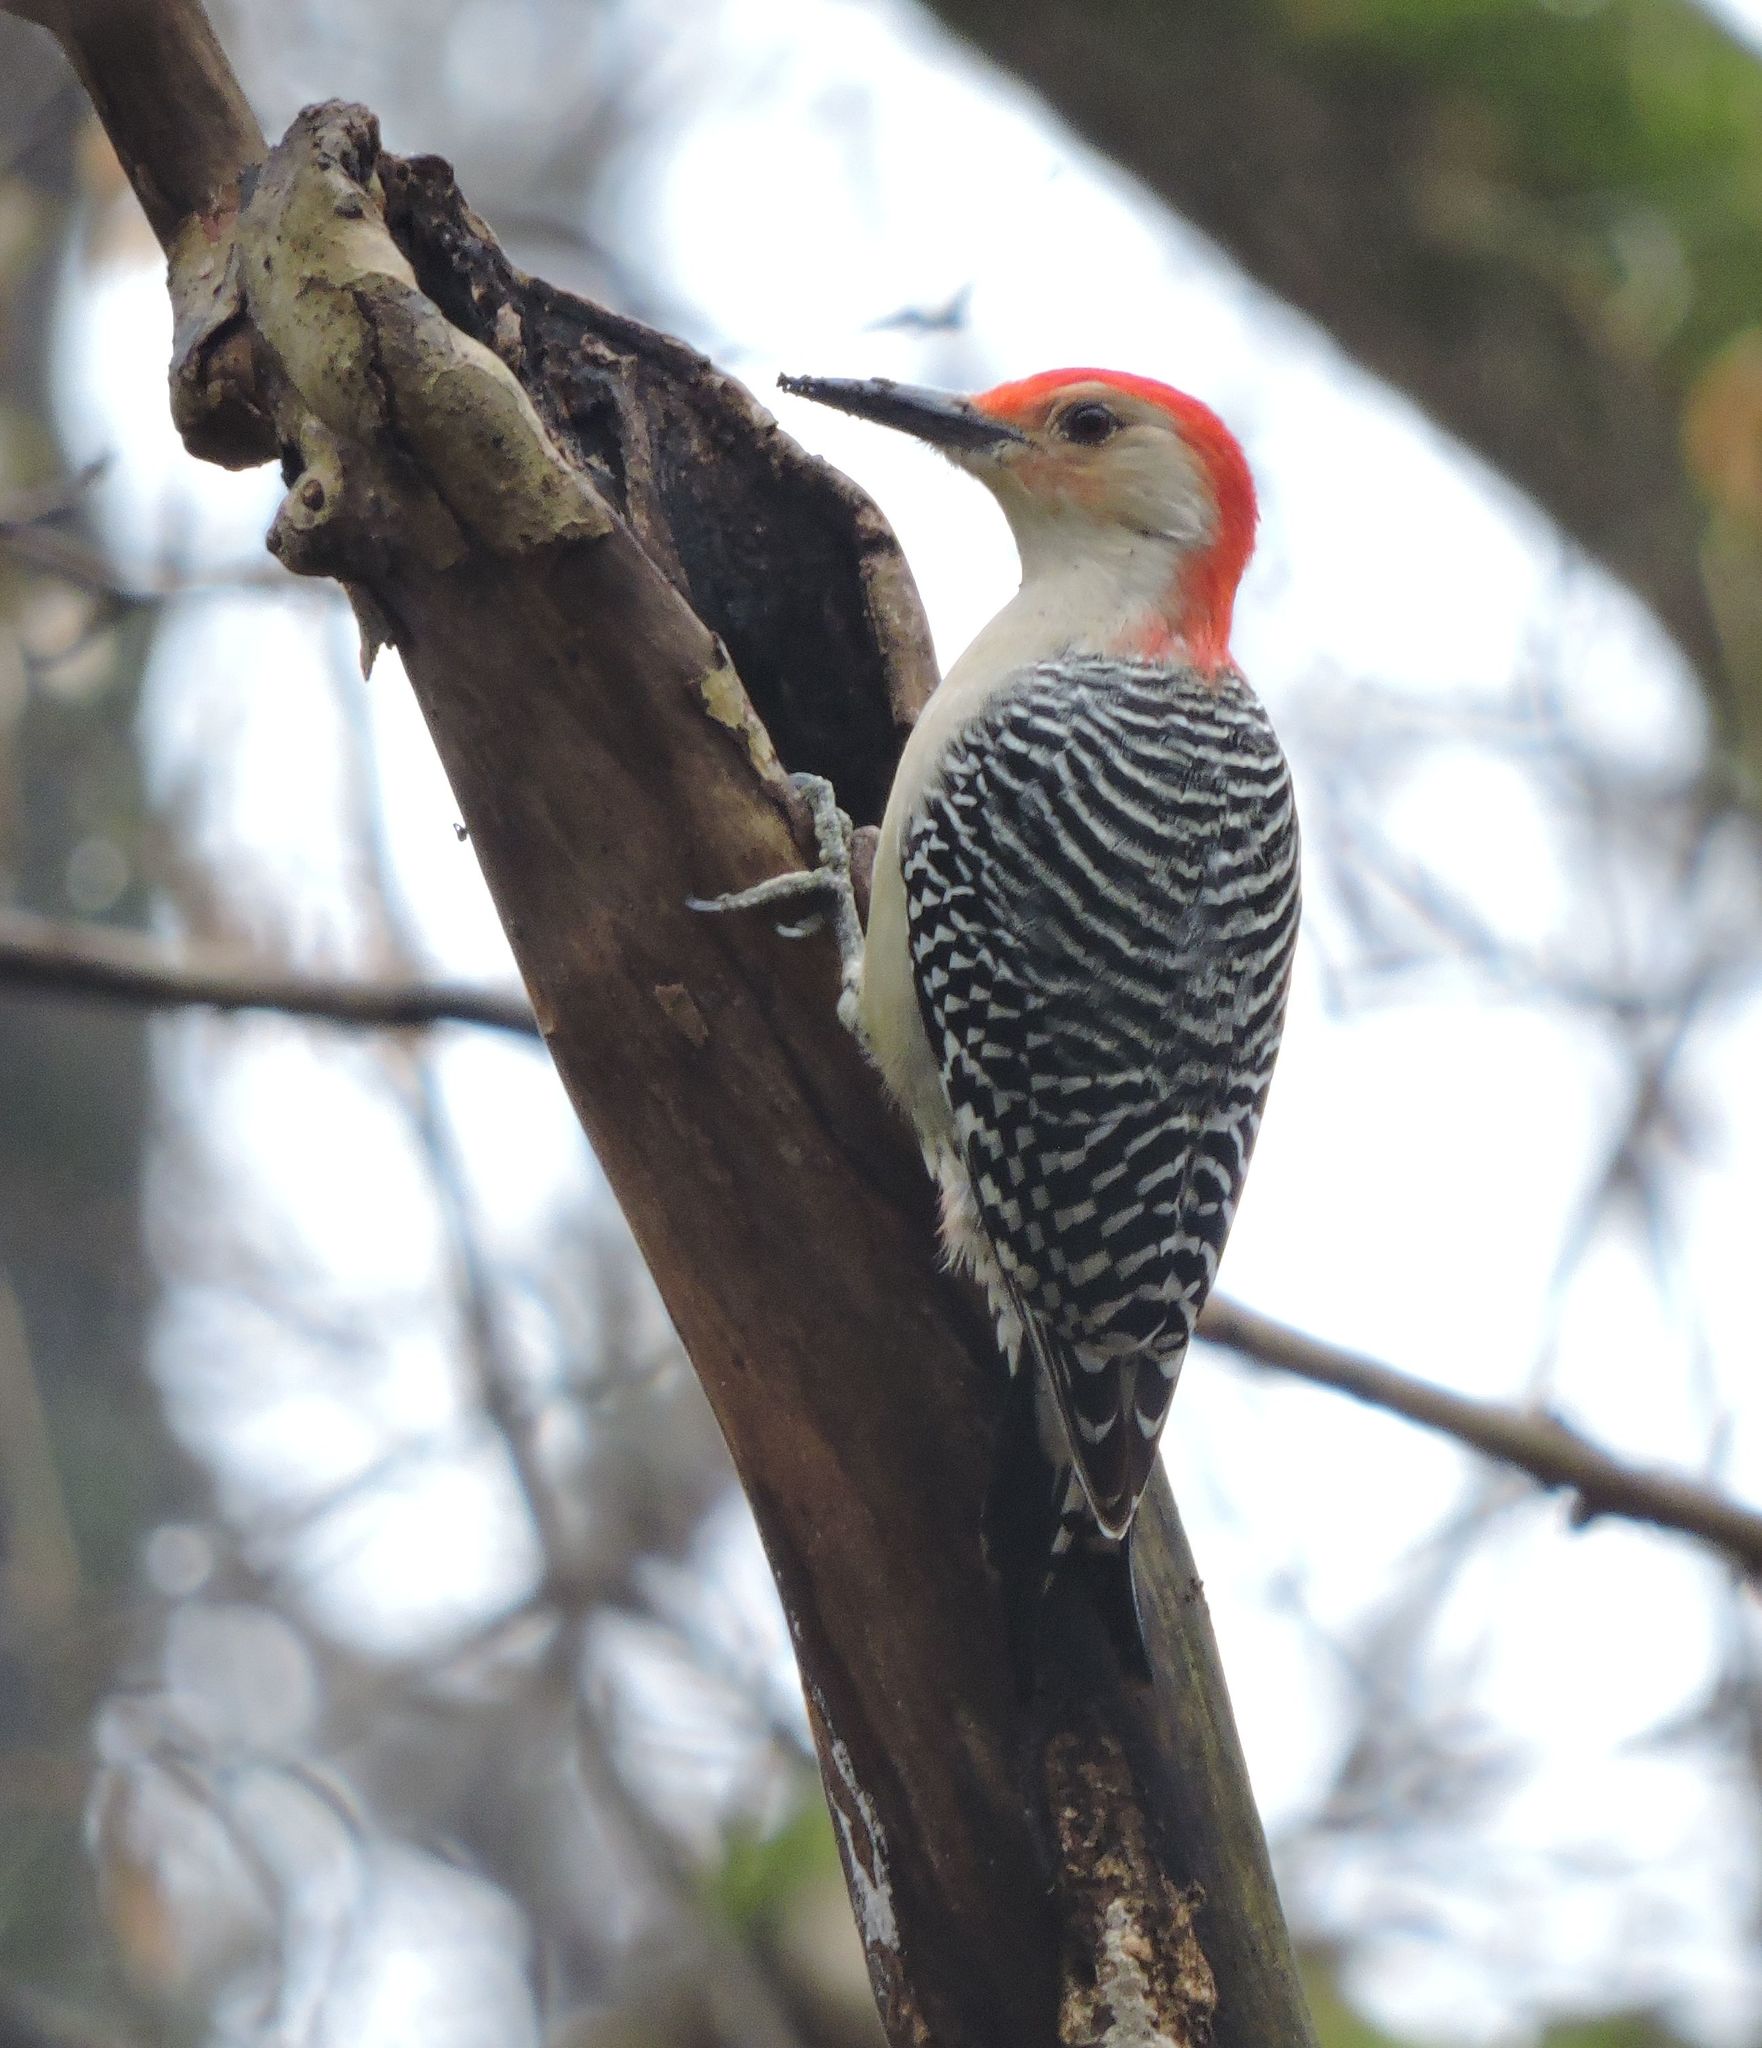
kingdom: Animalia
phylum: Chordata
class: Aves
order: Piciformes
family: Picidae
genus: Melanerpes
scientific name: Melanerpes carolinus
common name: Red-bellied woodpecker
